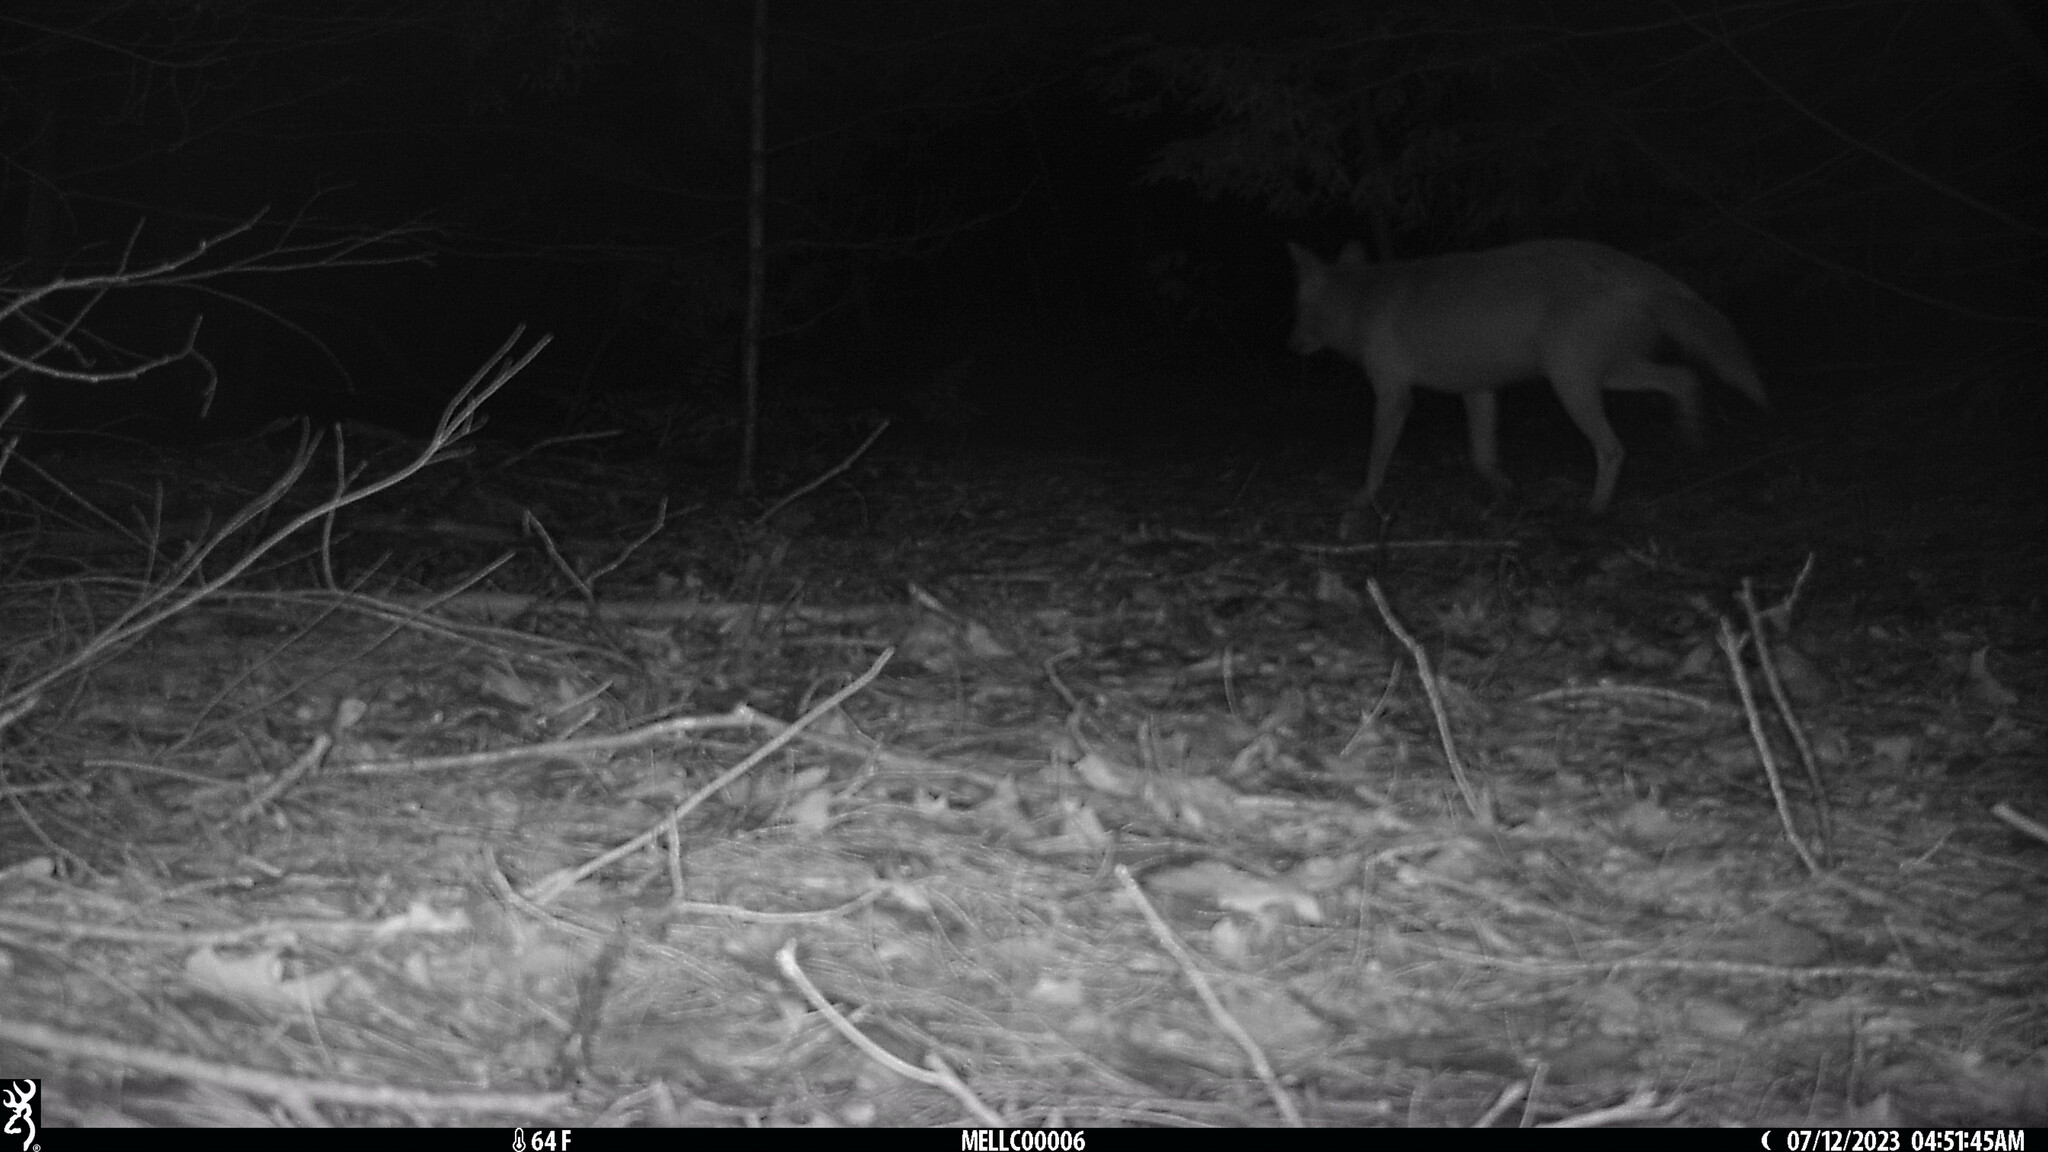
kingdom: Animalia
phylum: Chordata
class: Mammalia
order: Carnivora
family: Canidae
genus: Canis
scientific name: Canis latrans
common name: Coyote
